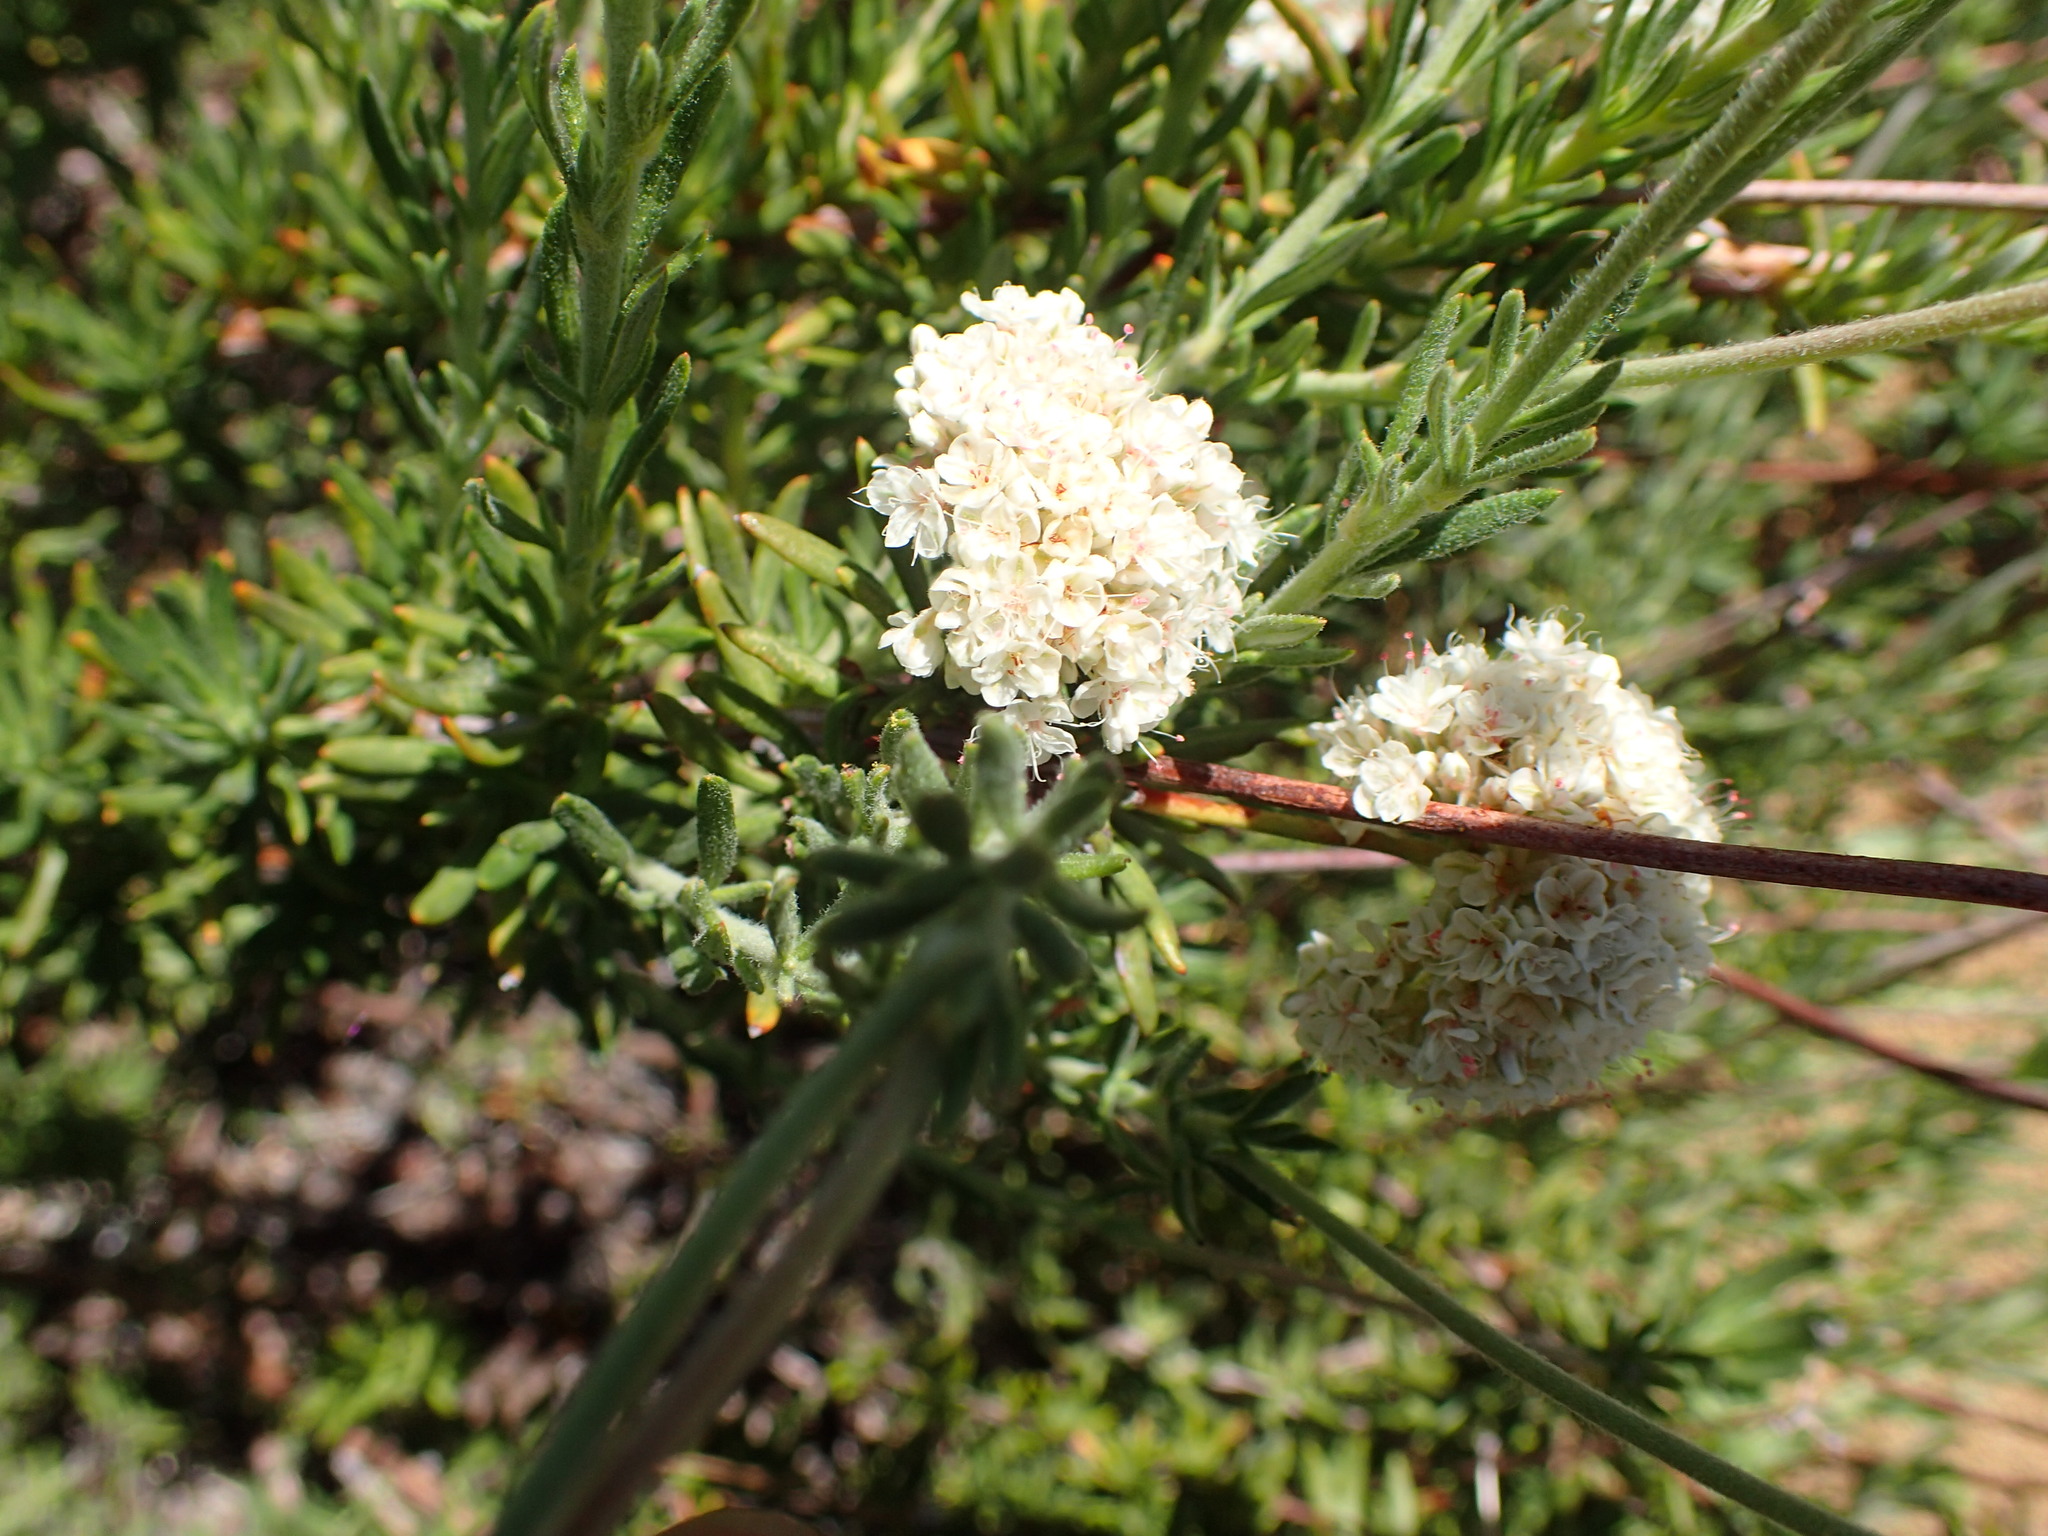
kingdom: Plantae
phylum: Tracheophyta
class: Magnoliopsida
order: Caryophyllales
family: Polygonaceae
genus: Eriogonum
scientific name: Eriogonum fasciculatum
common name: California wild buckwheat
